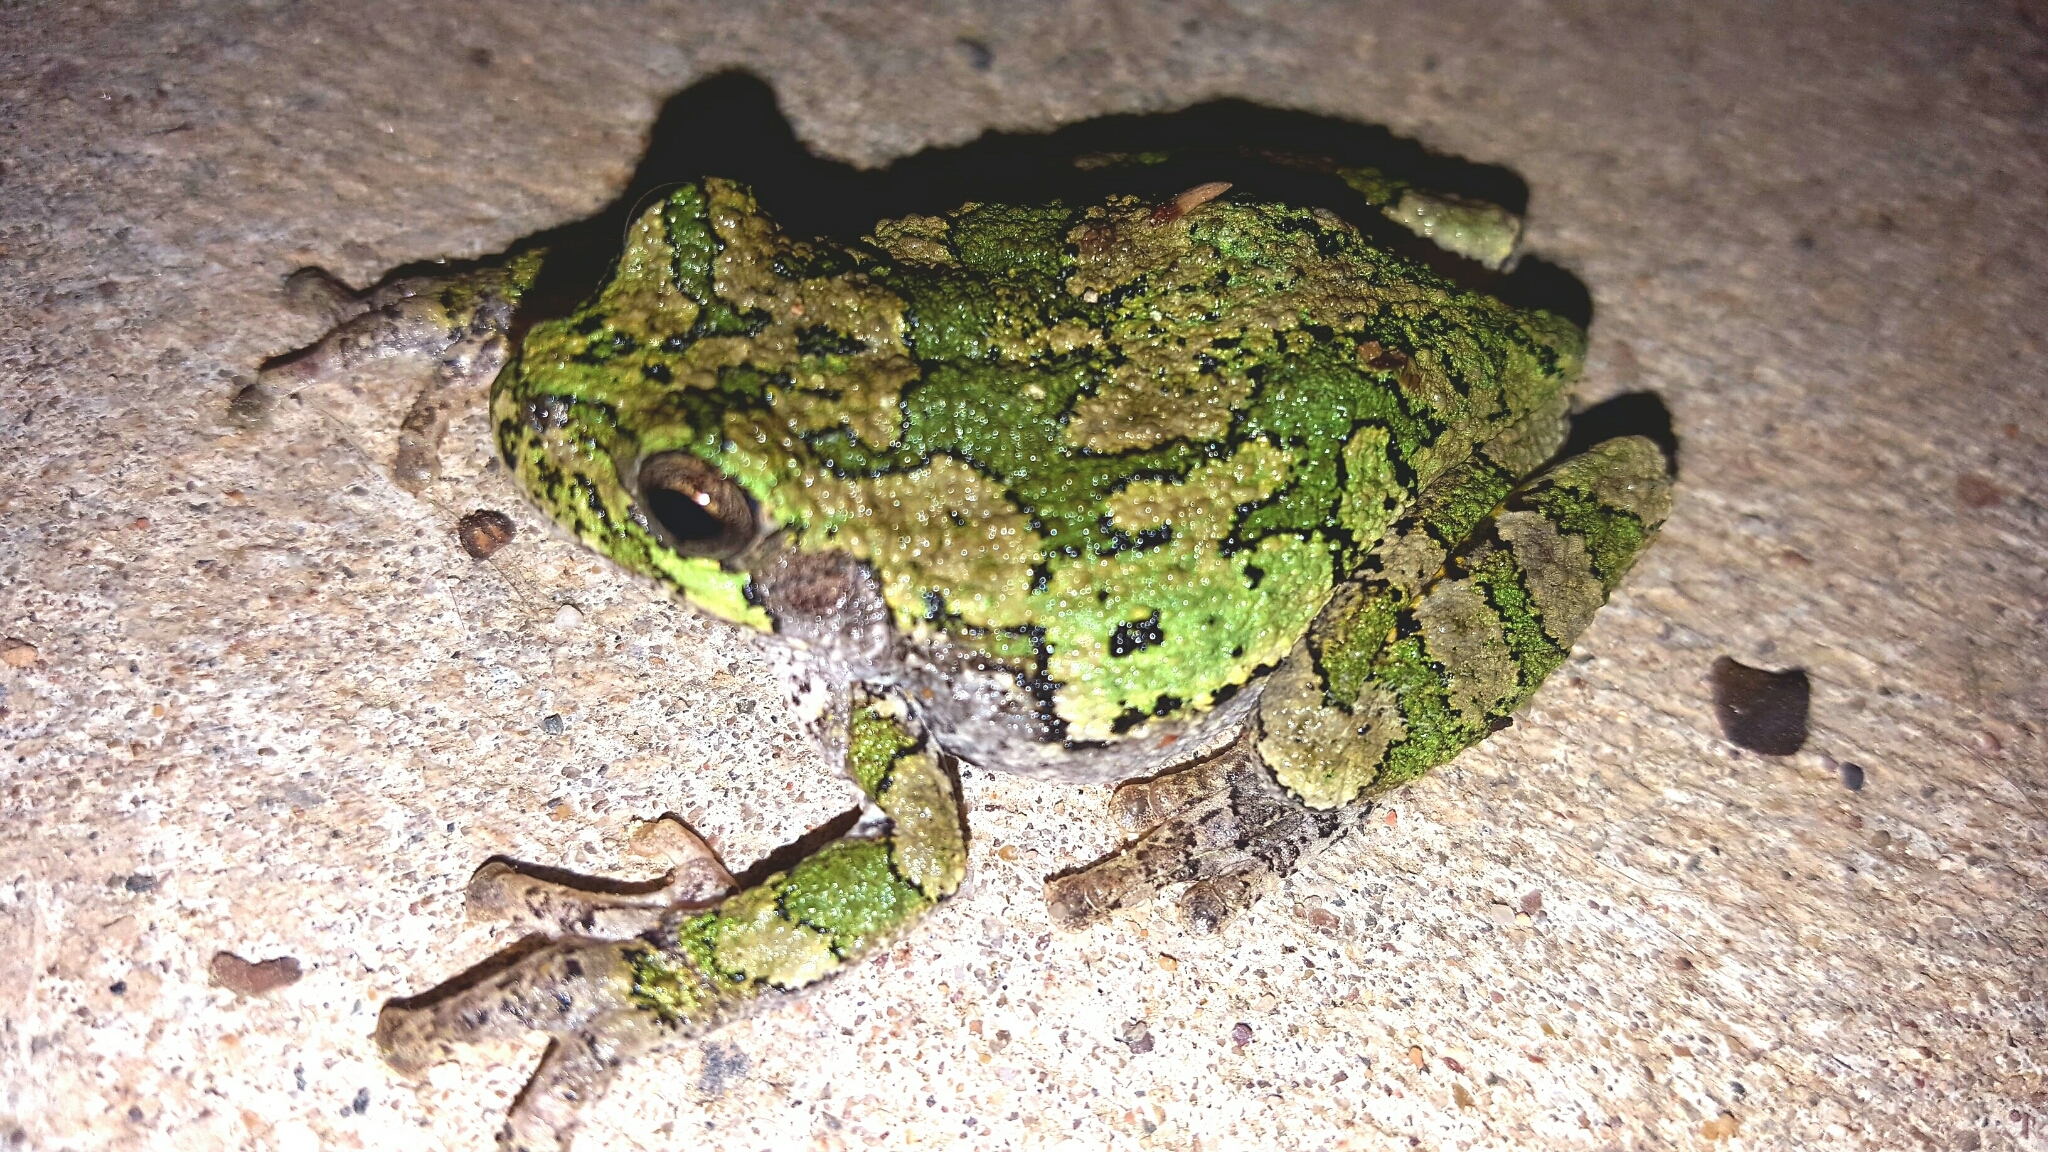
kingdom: Animalia
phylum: Chordata
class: Amphibia
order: Anura
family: Hylidae
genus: Dryophytes
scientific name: Dryophytes versicolor
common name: Gray treefrog
